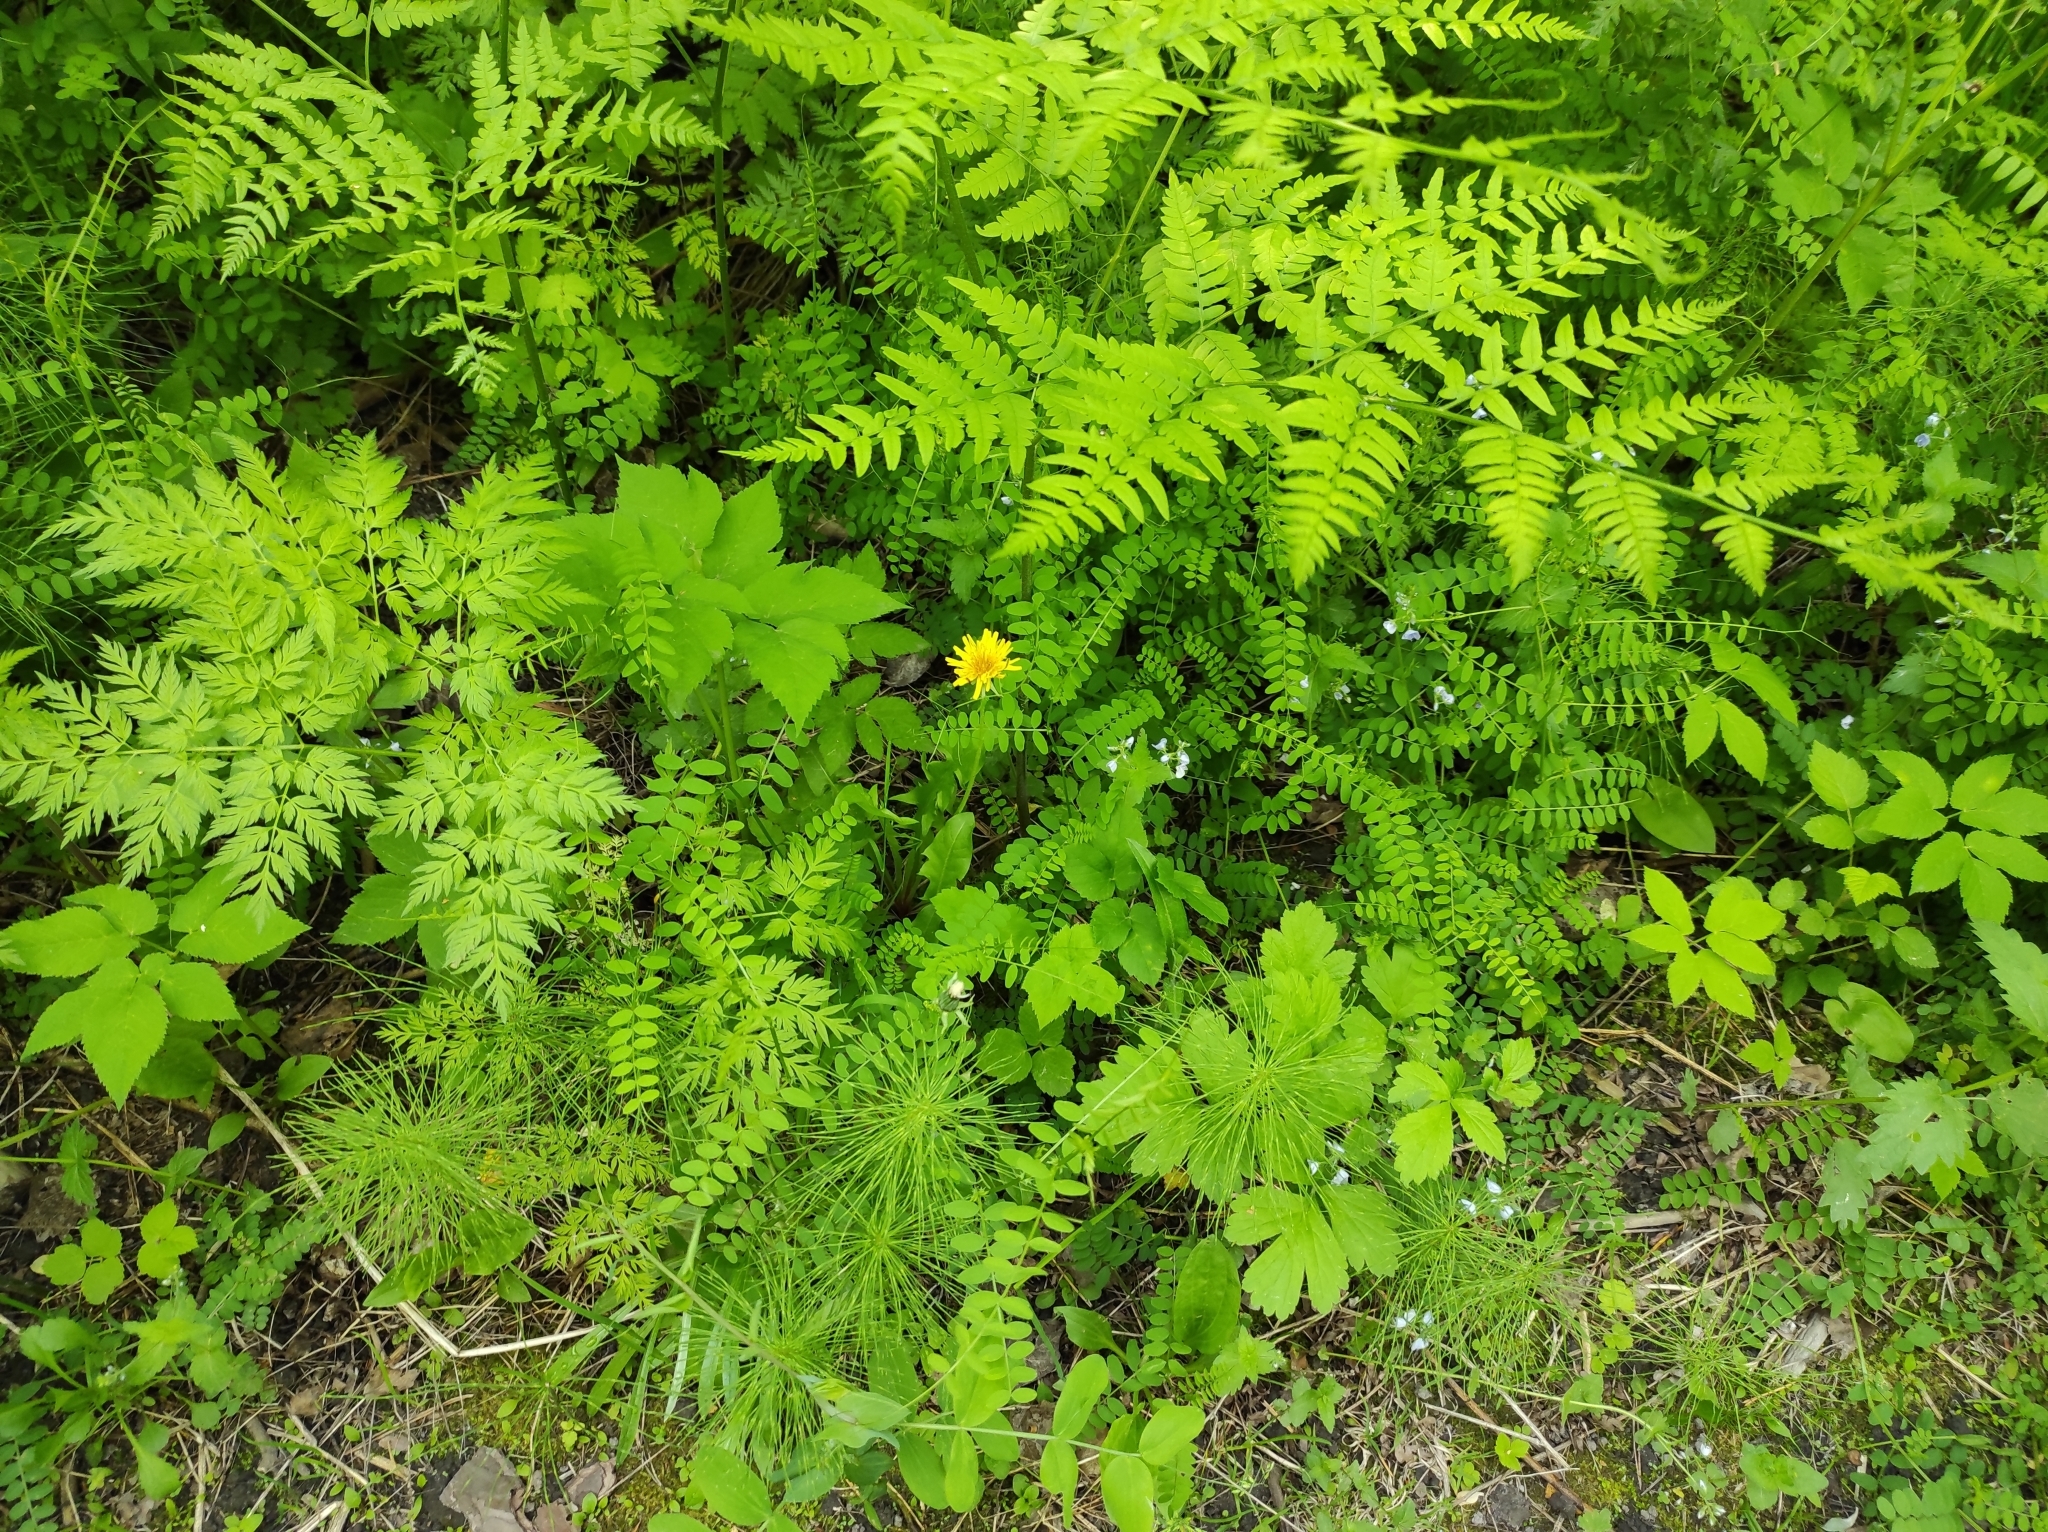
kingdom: Plantae
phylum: Tracheophyta
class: Polypodiopsida
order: Polypodiales
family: Dennstaedtiaceae
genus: Pteridium
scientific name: Pteridium aquilinum
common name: Bracken
